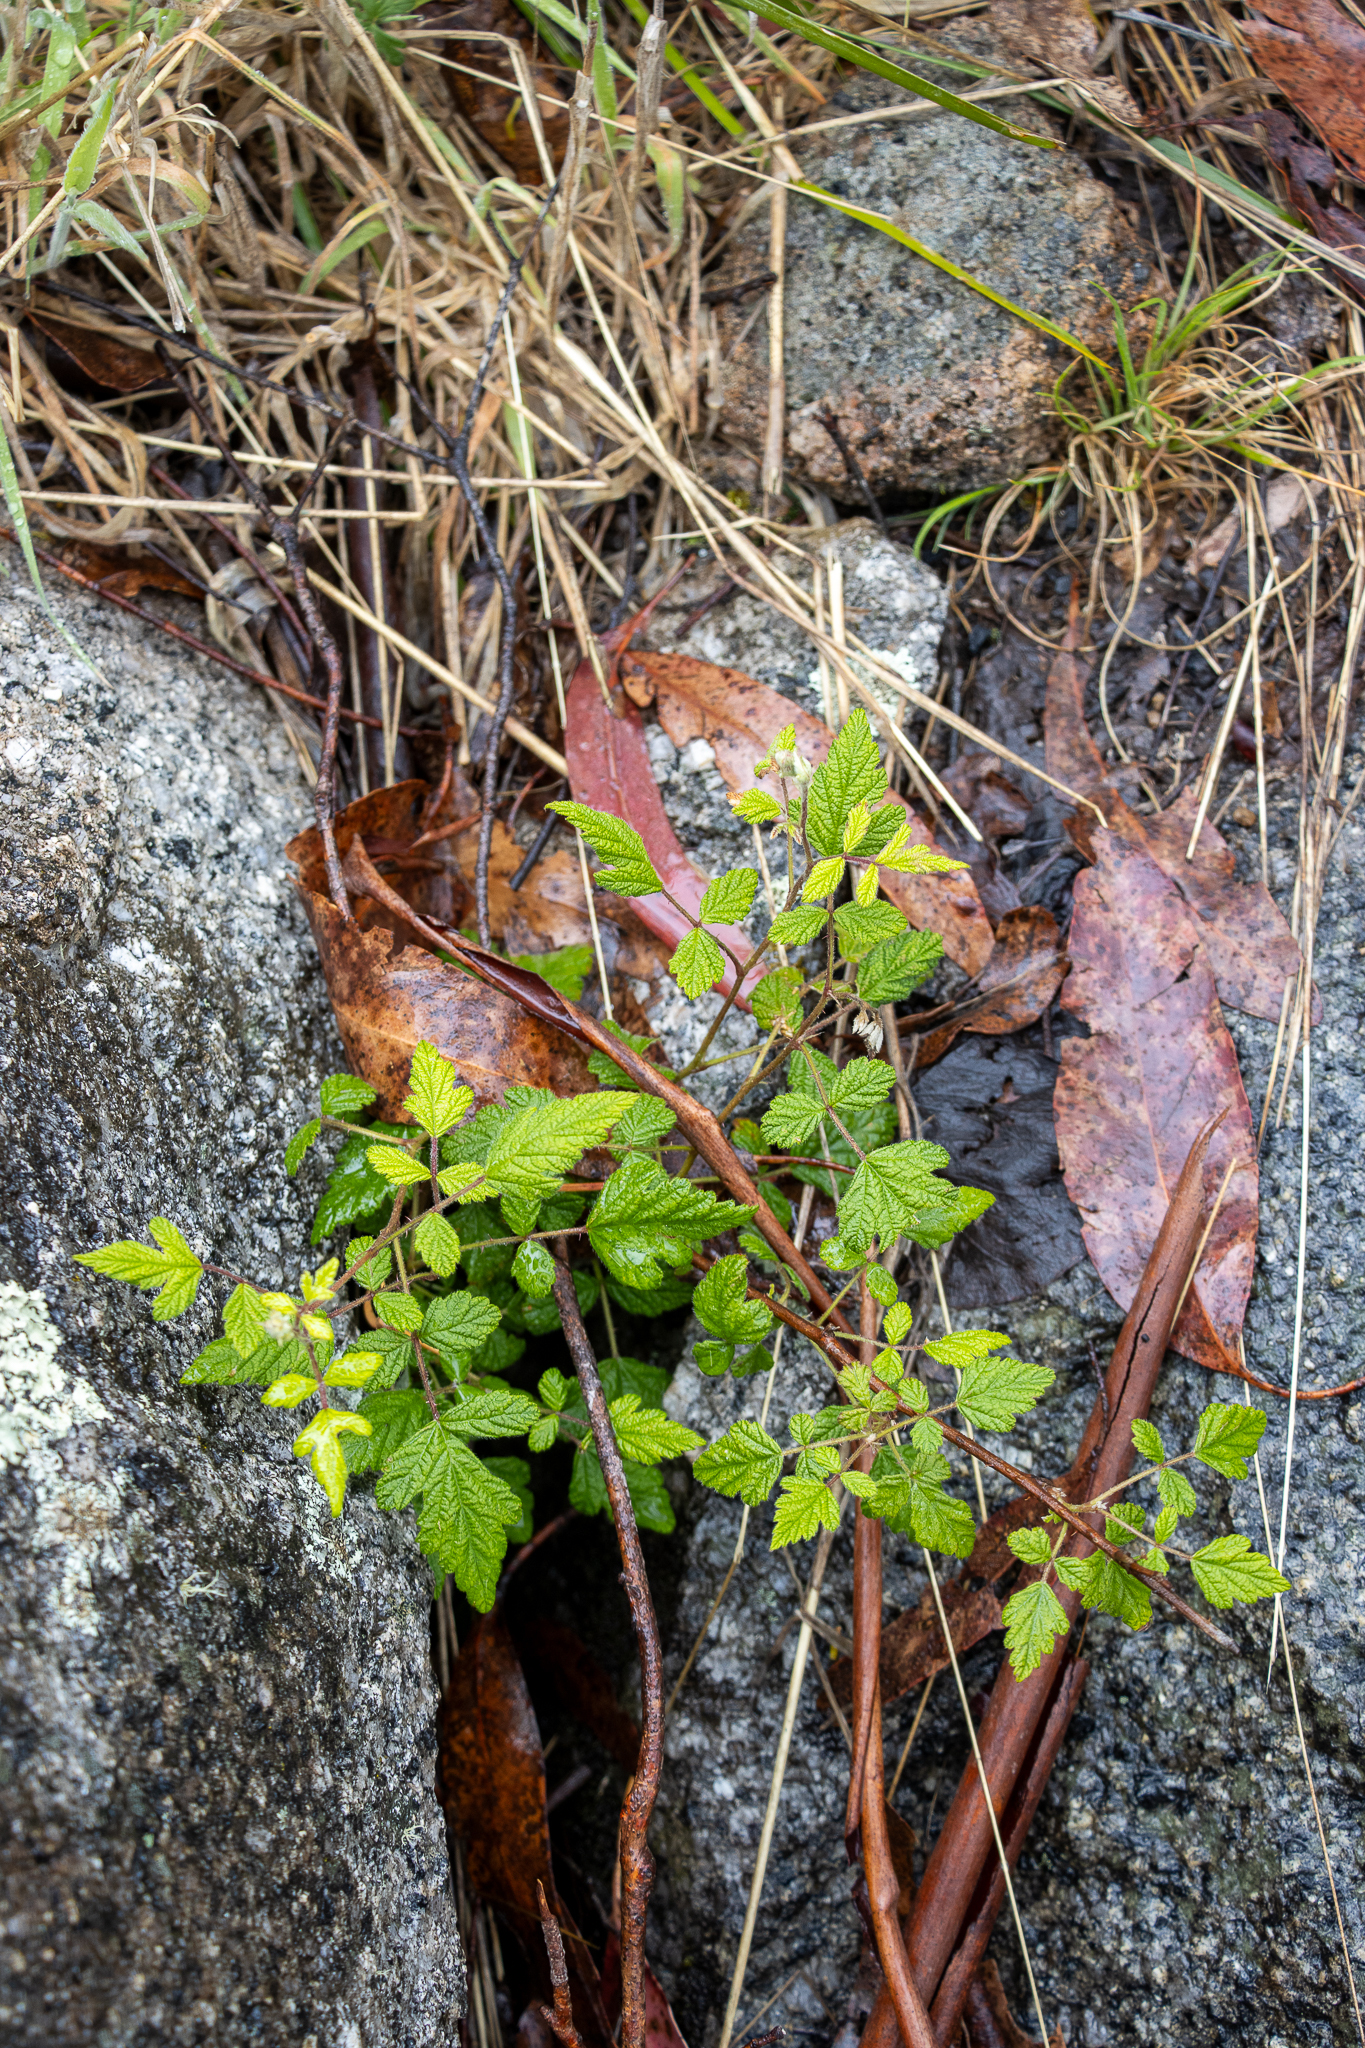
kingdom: Plantae
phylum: Tracheophyta
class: Magnoliopsida
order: Rosales
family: Rosaceae
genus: Rubus
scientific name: Rubus parvifolius
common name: Threeleaf blackberry
